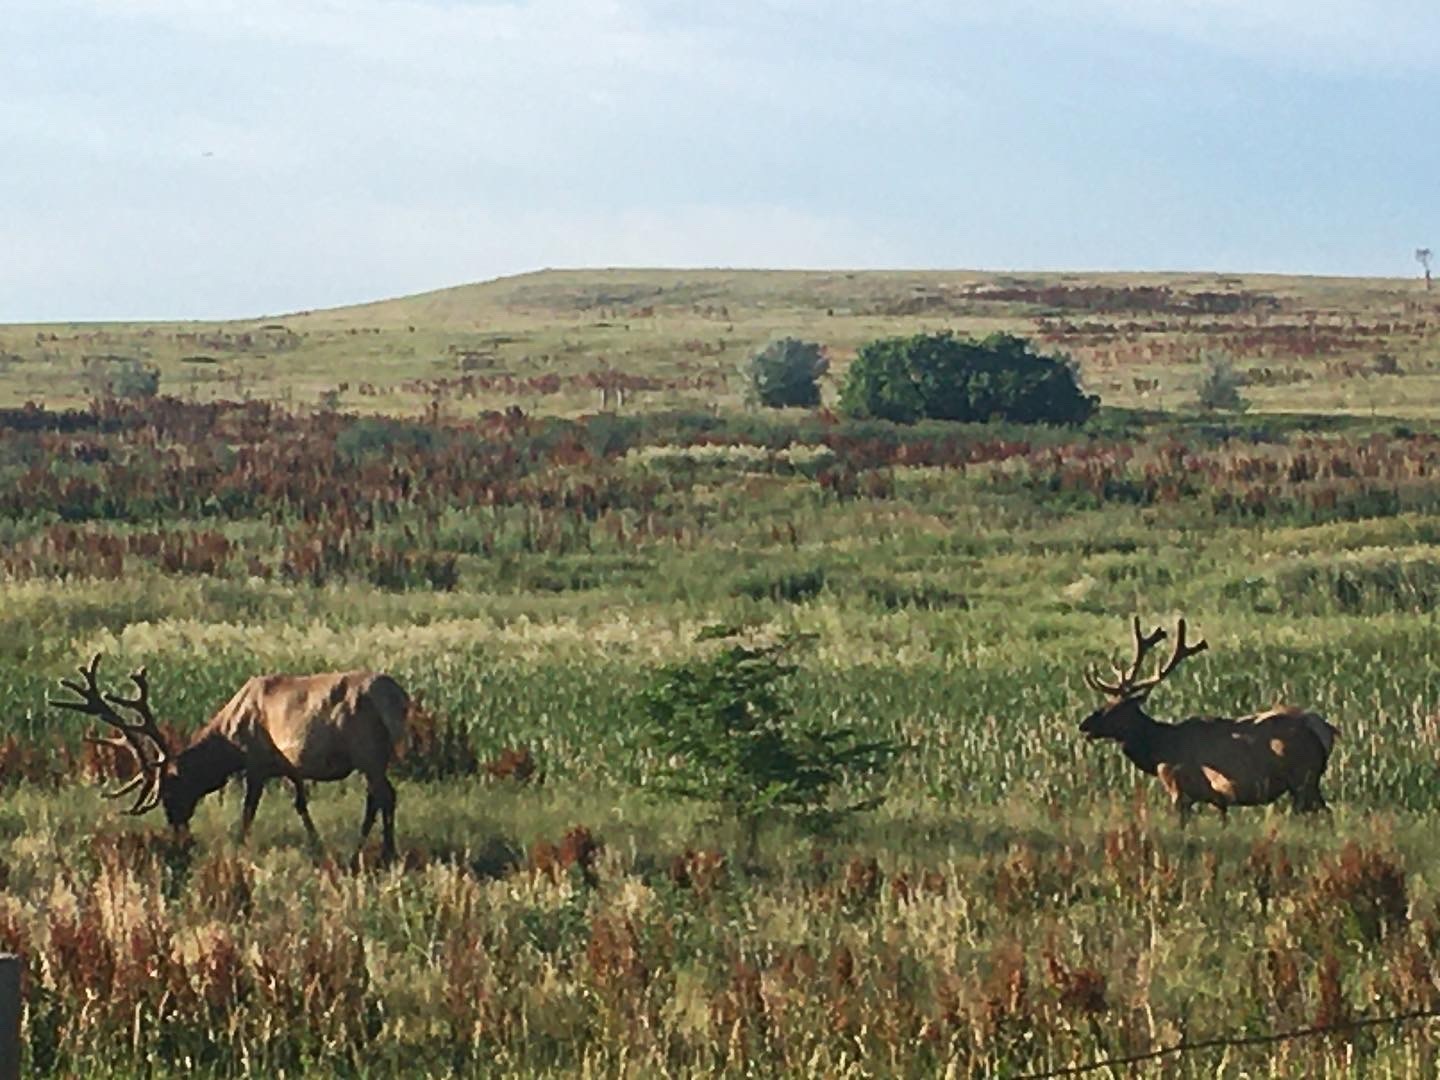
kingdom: Animalia
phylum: Chordata
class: Mammalia
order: Artiodactyla
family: Cervidae
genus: Cervus
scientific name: Cervus elaphus
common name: Red deer
